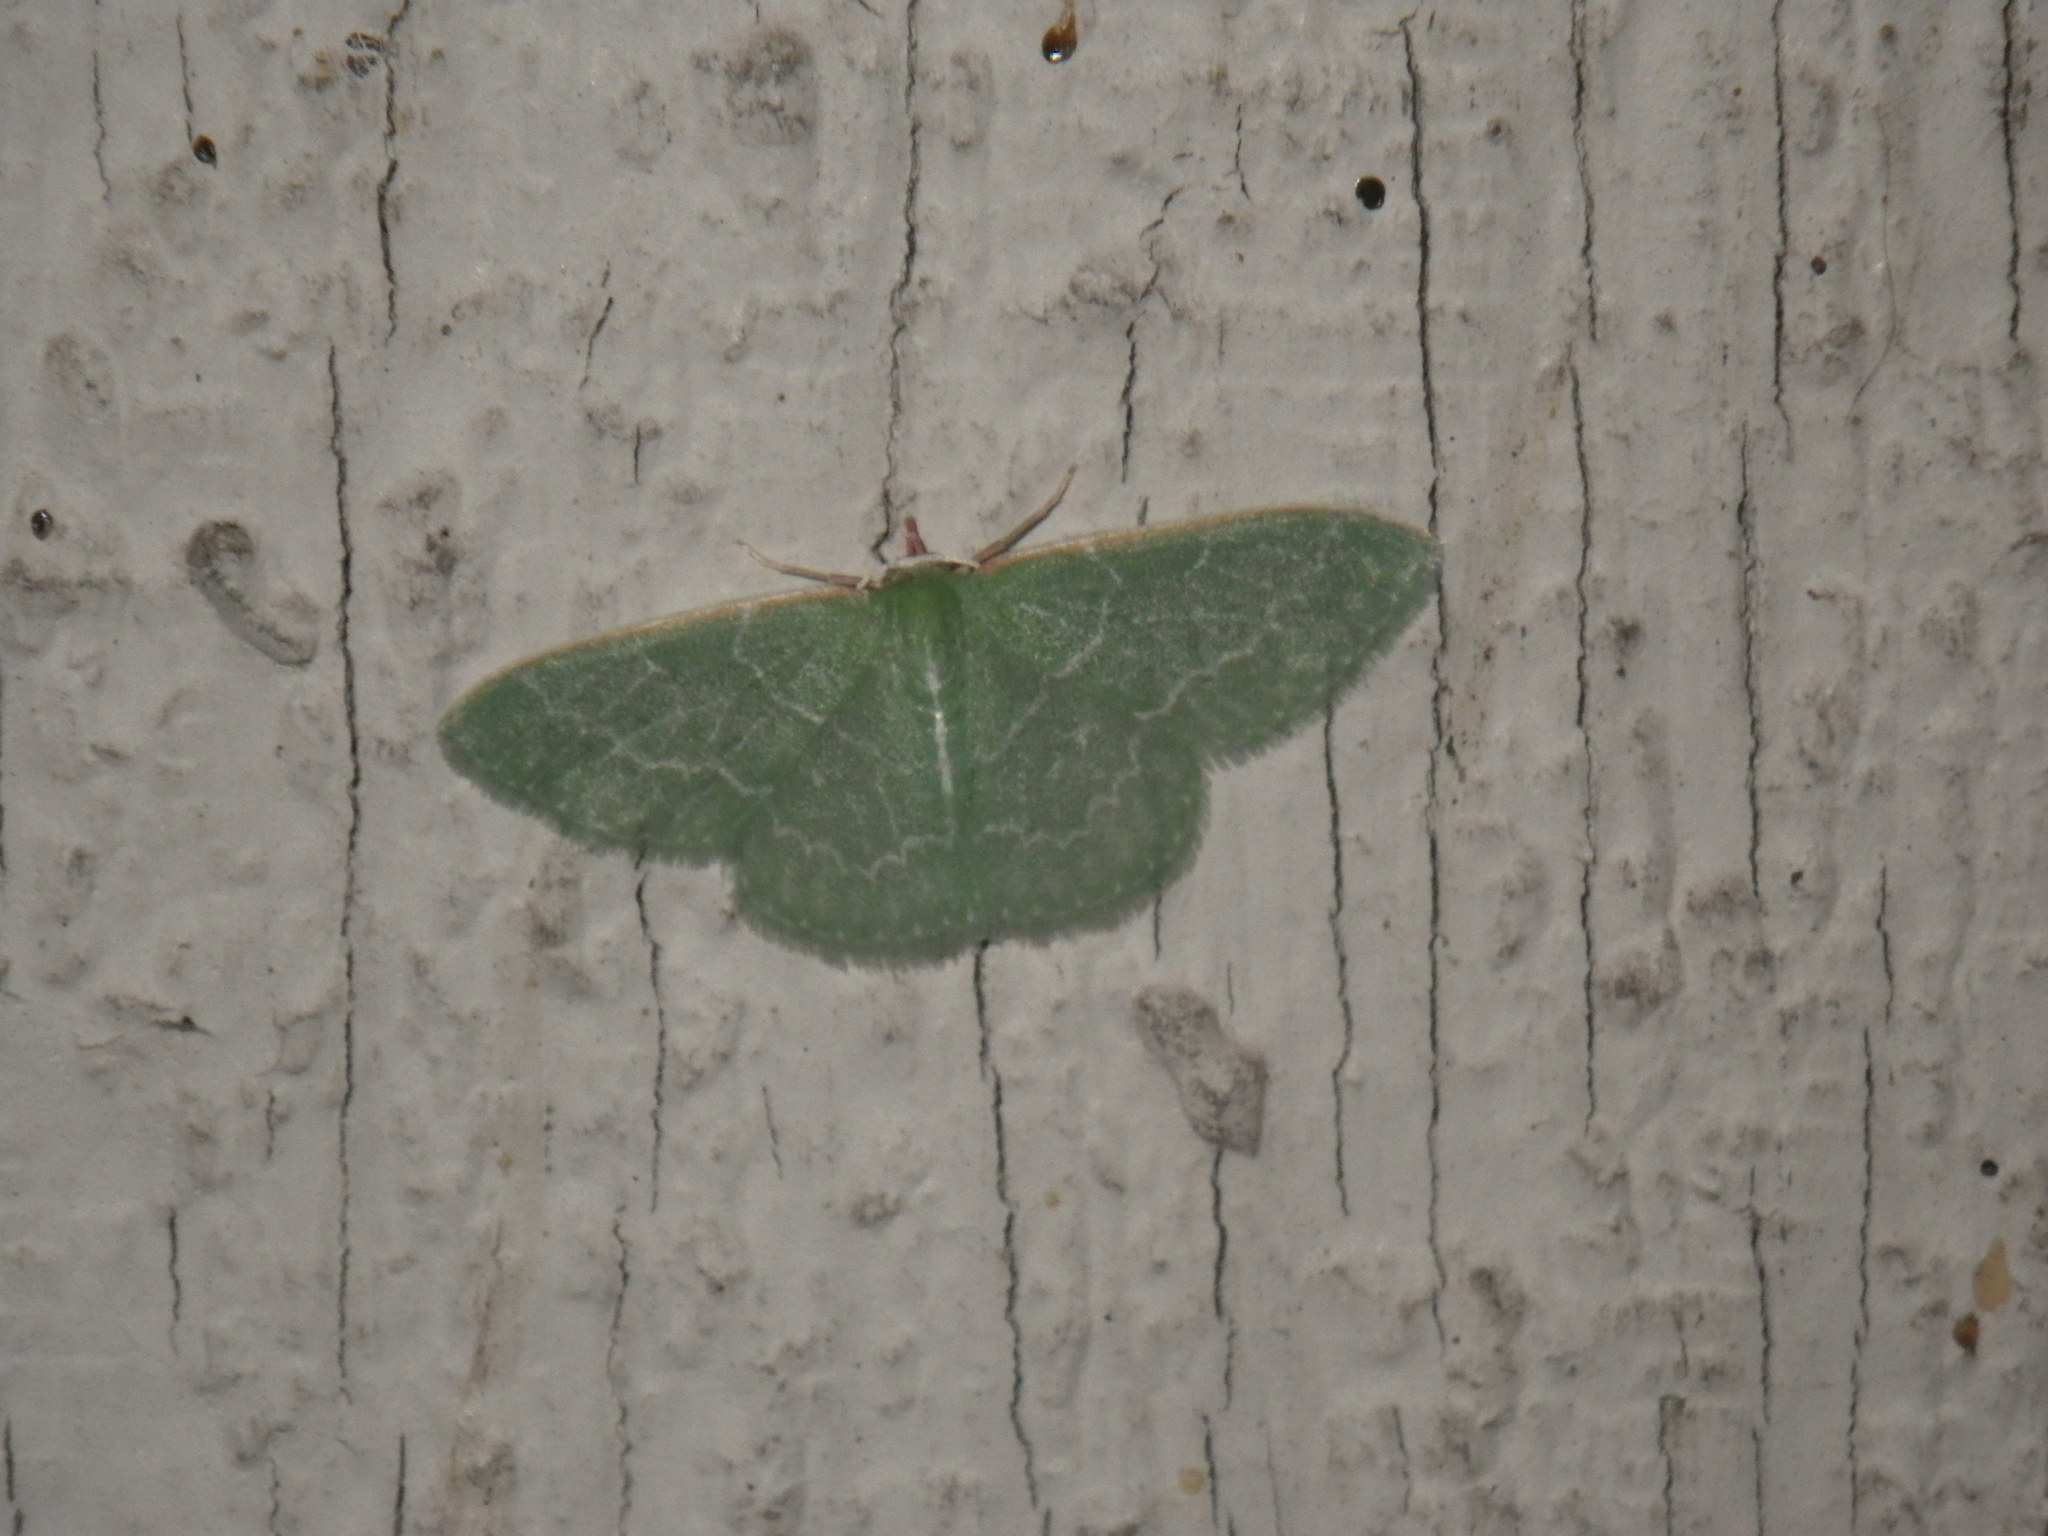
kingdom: Animalia
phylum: Arthropoda
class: Insecta
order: Lepidoptera
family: Geometridae
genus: Synchlora
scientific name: Synchlora aerata
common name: Wavy-lined emerald
